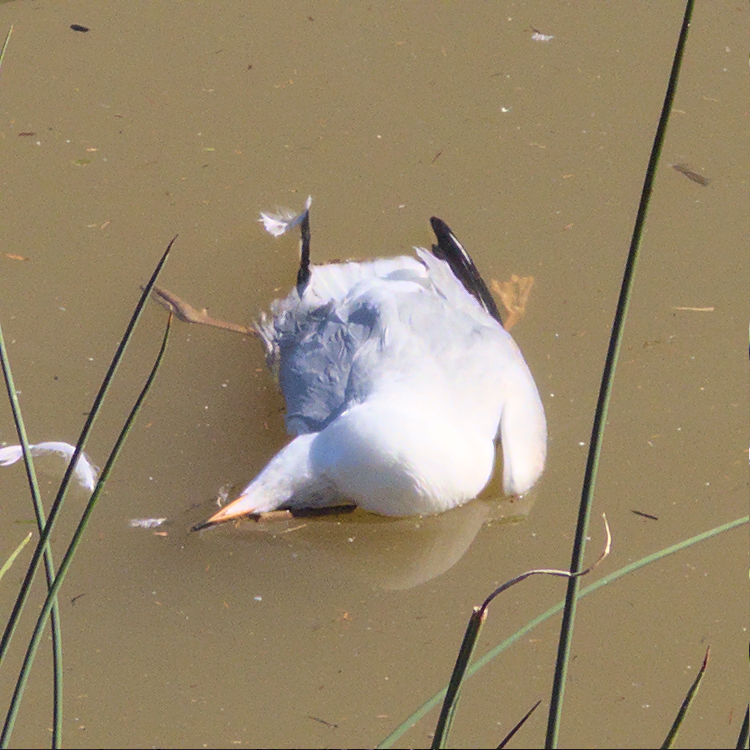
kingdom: Animalia
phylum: Chordata
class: Aves
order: Charadriiformes
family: Laridae
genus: Chroicocephalus
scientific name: Chroicocephalus novaehollandiae
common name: Silver gull
